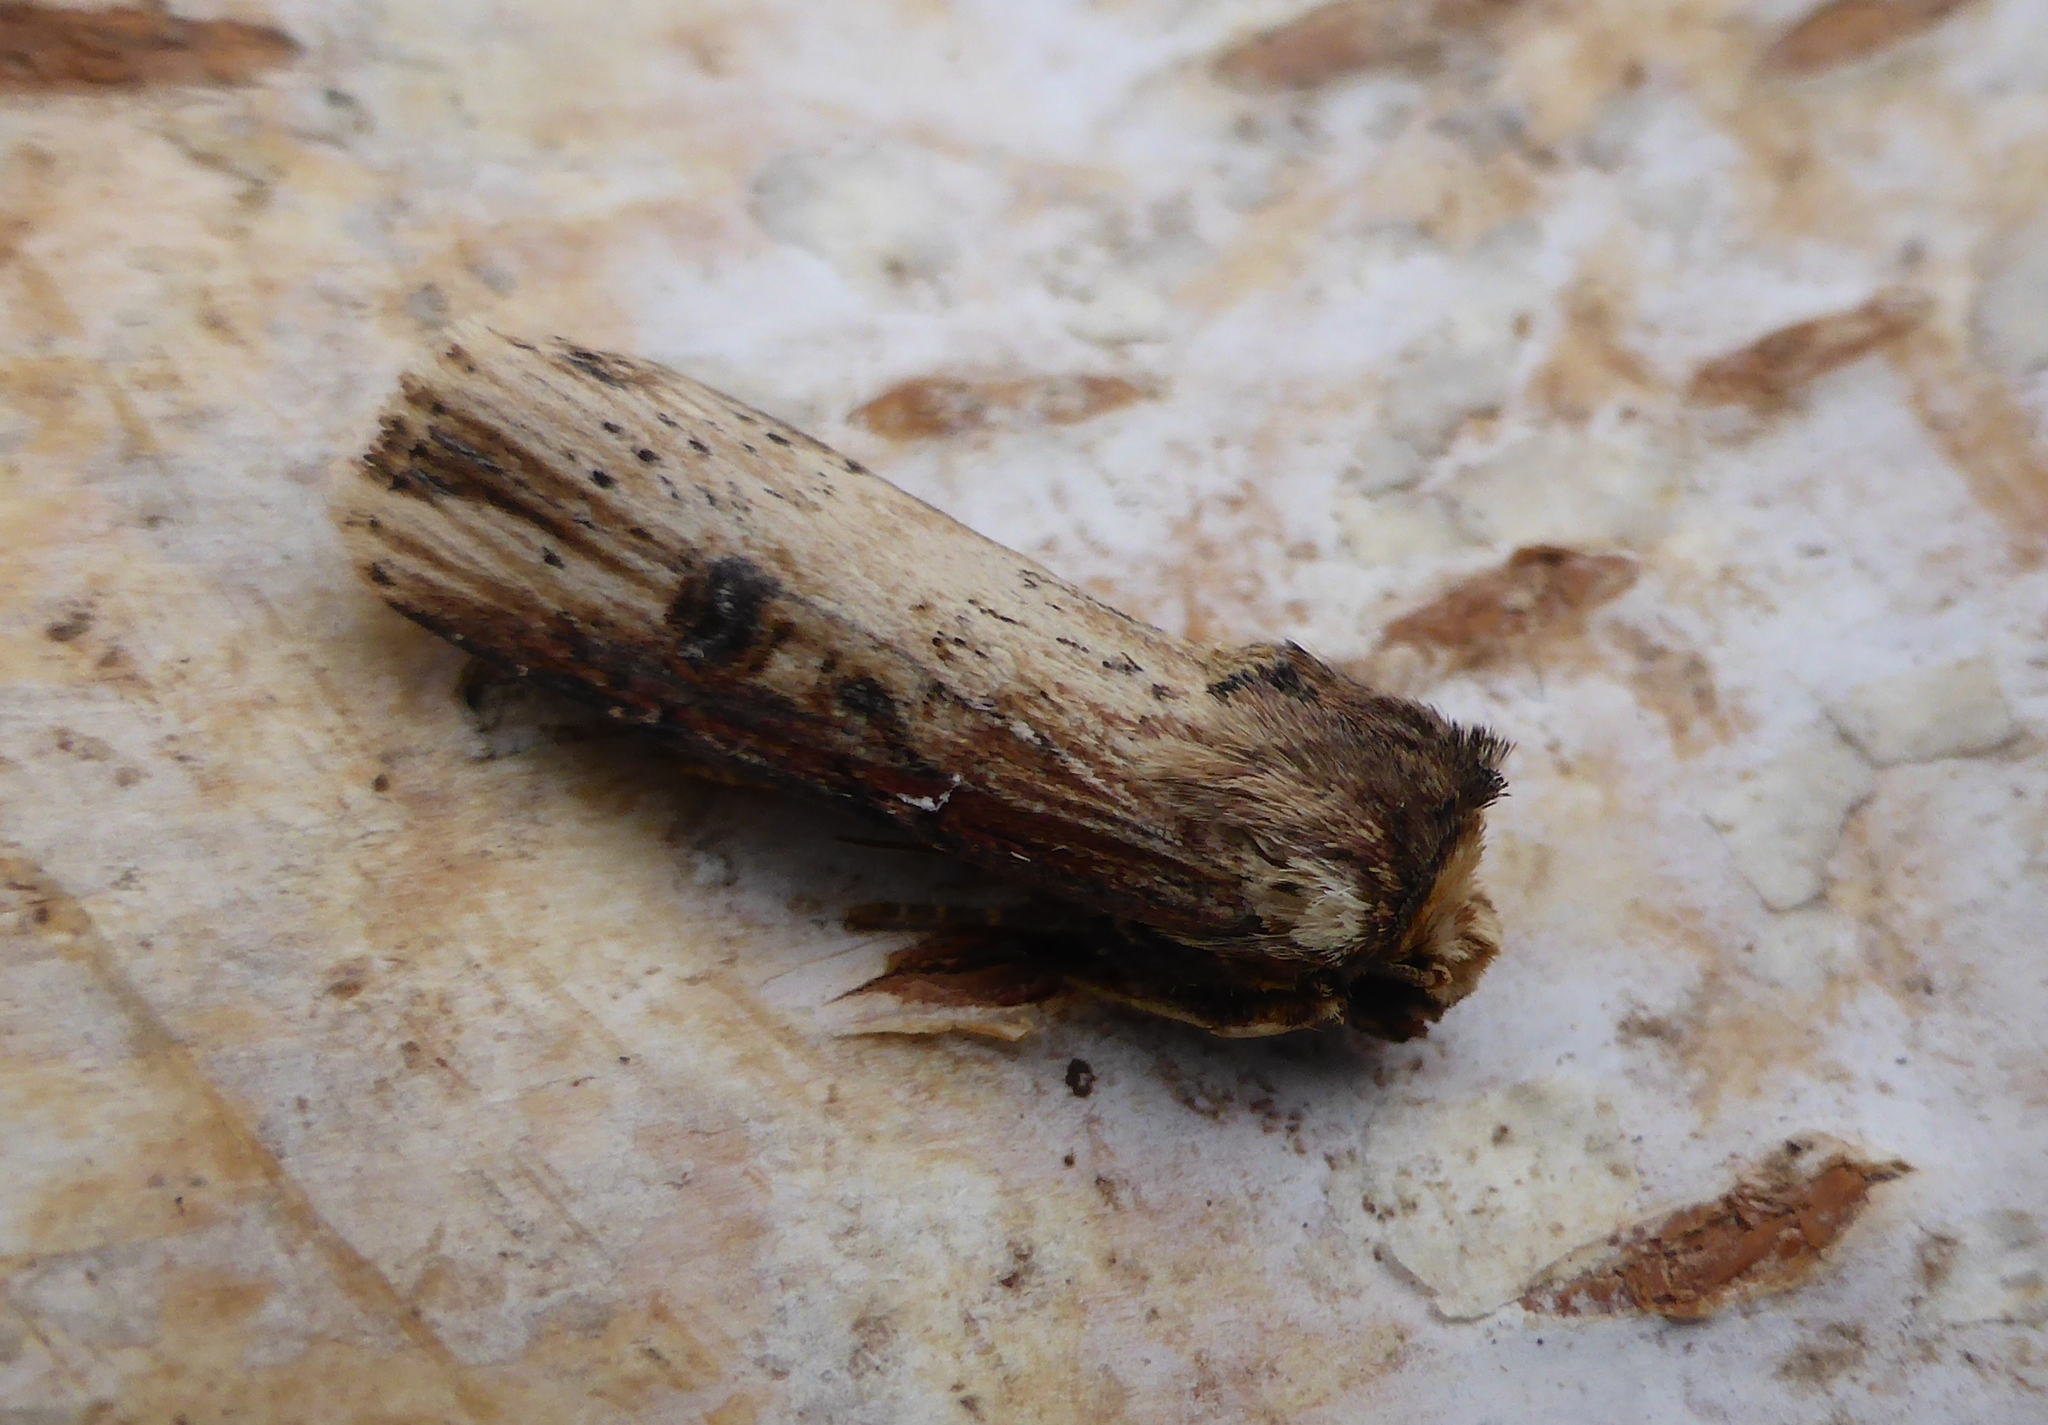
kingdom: Animalia
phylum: Arthropoda
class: Insecta
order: Lepidoptera
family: Noctuidae
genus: Axylia
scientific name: Axylia putris
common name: Flame
